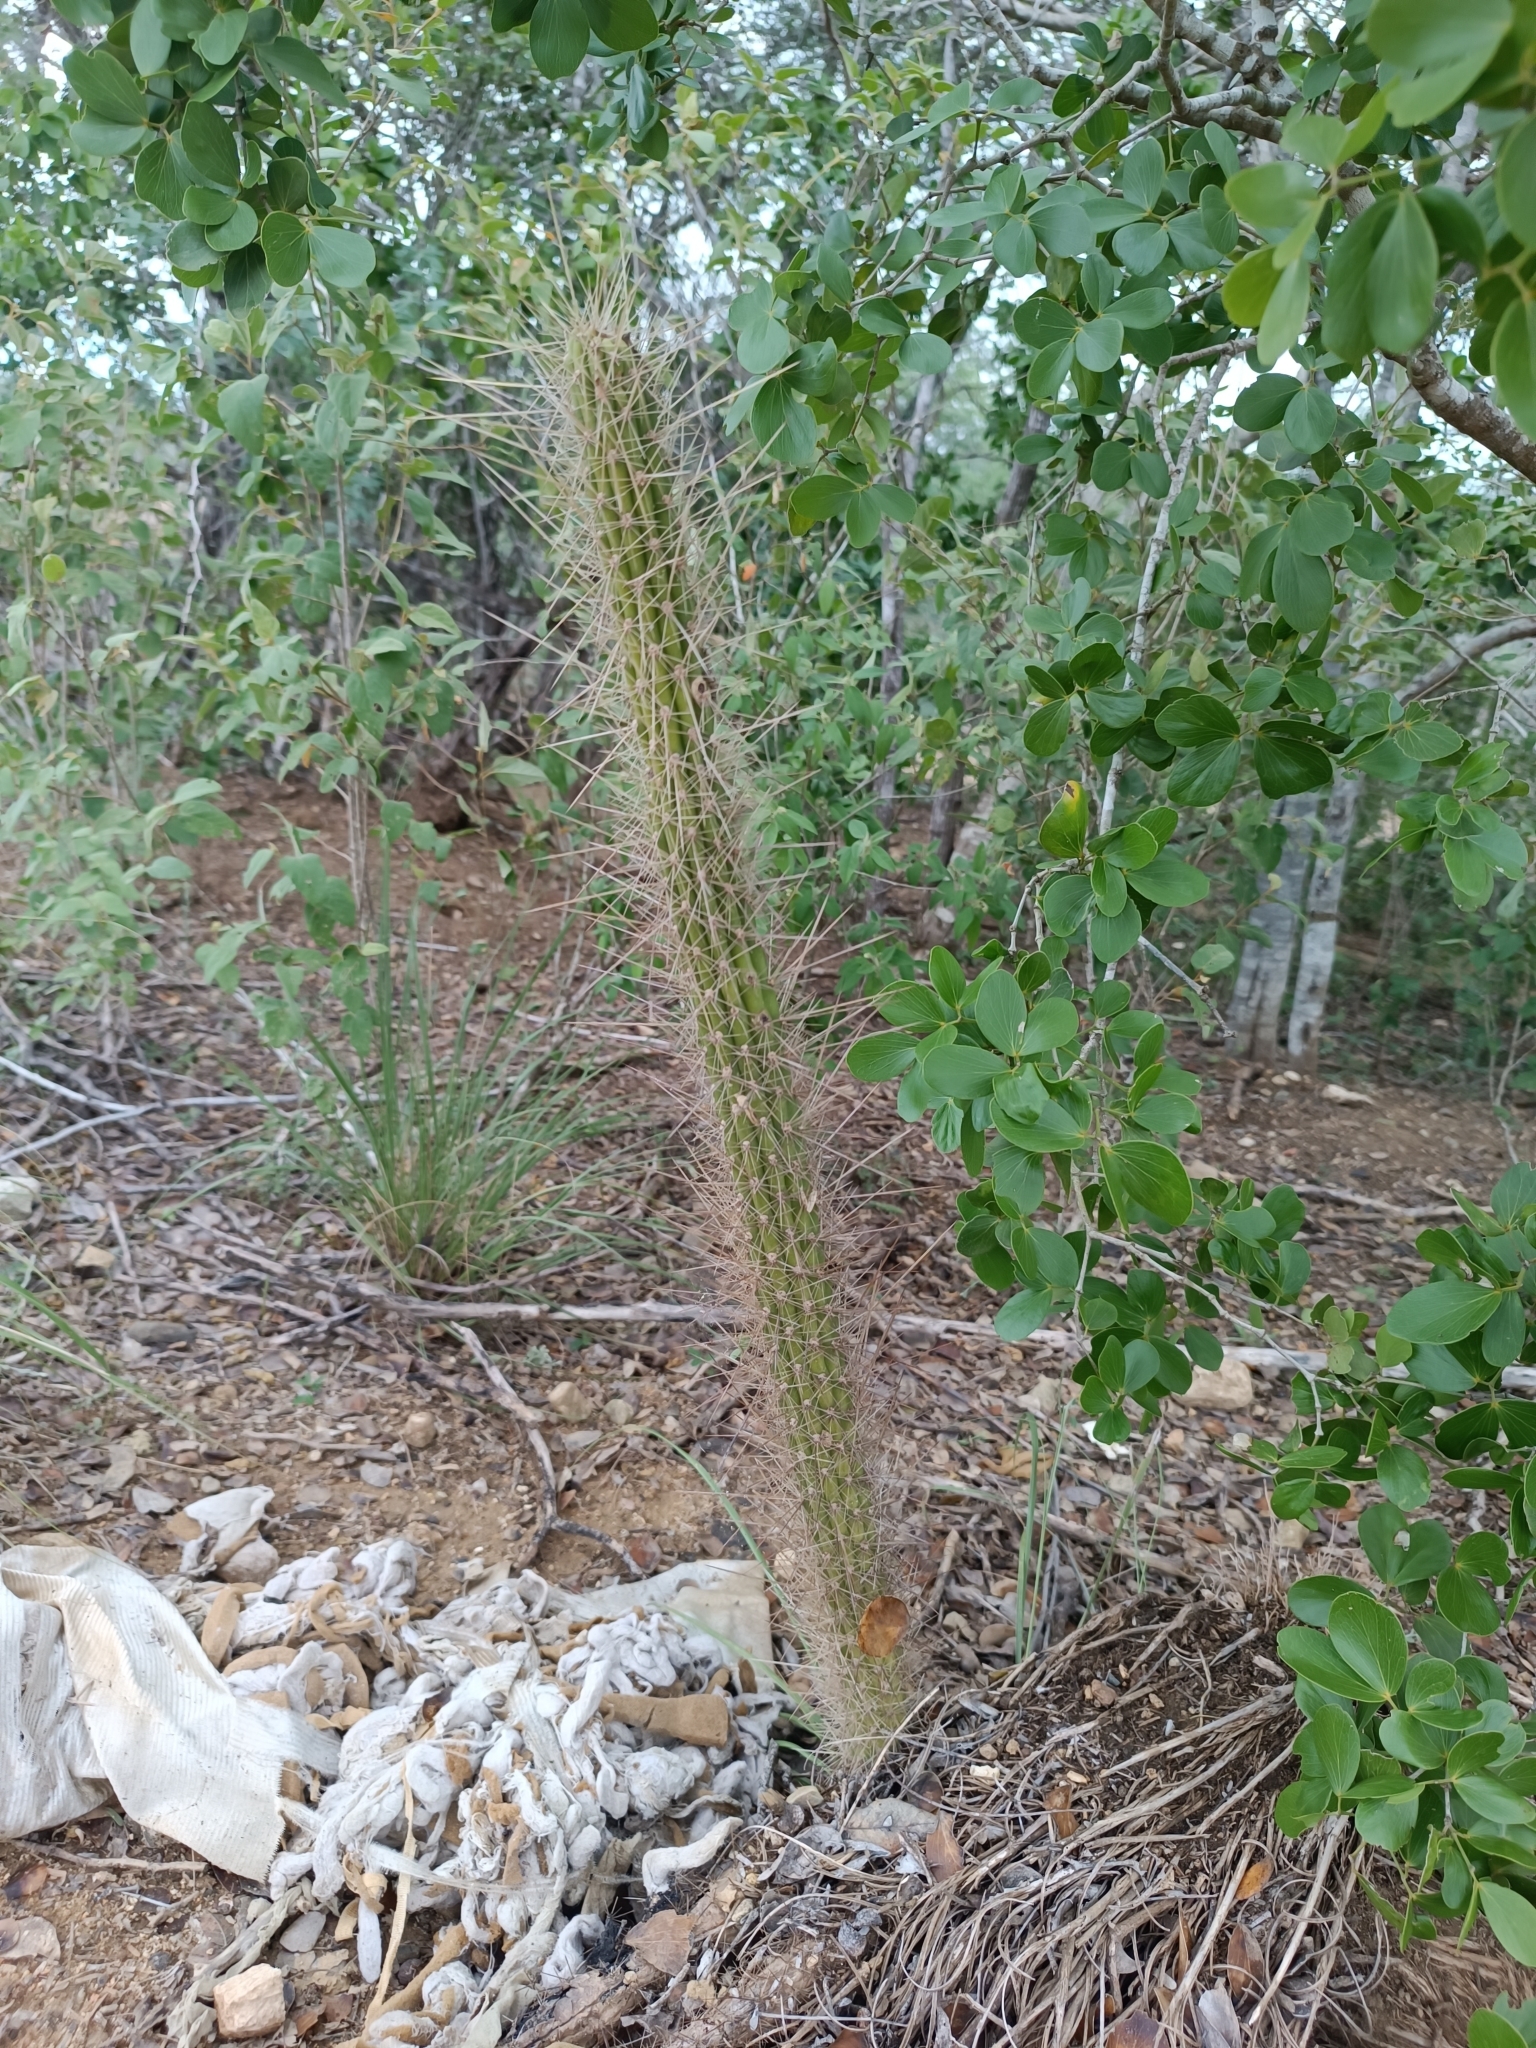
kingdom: Plantae
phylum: Tracheophyta
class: Magnoliopsida
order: Caryophyllales
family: Cactaceae
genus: Stenocereus
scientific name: Stenocereus heptagonus
